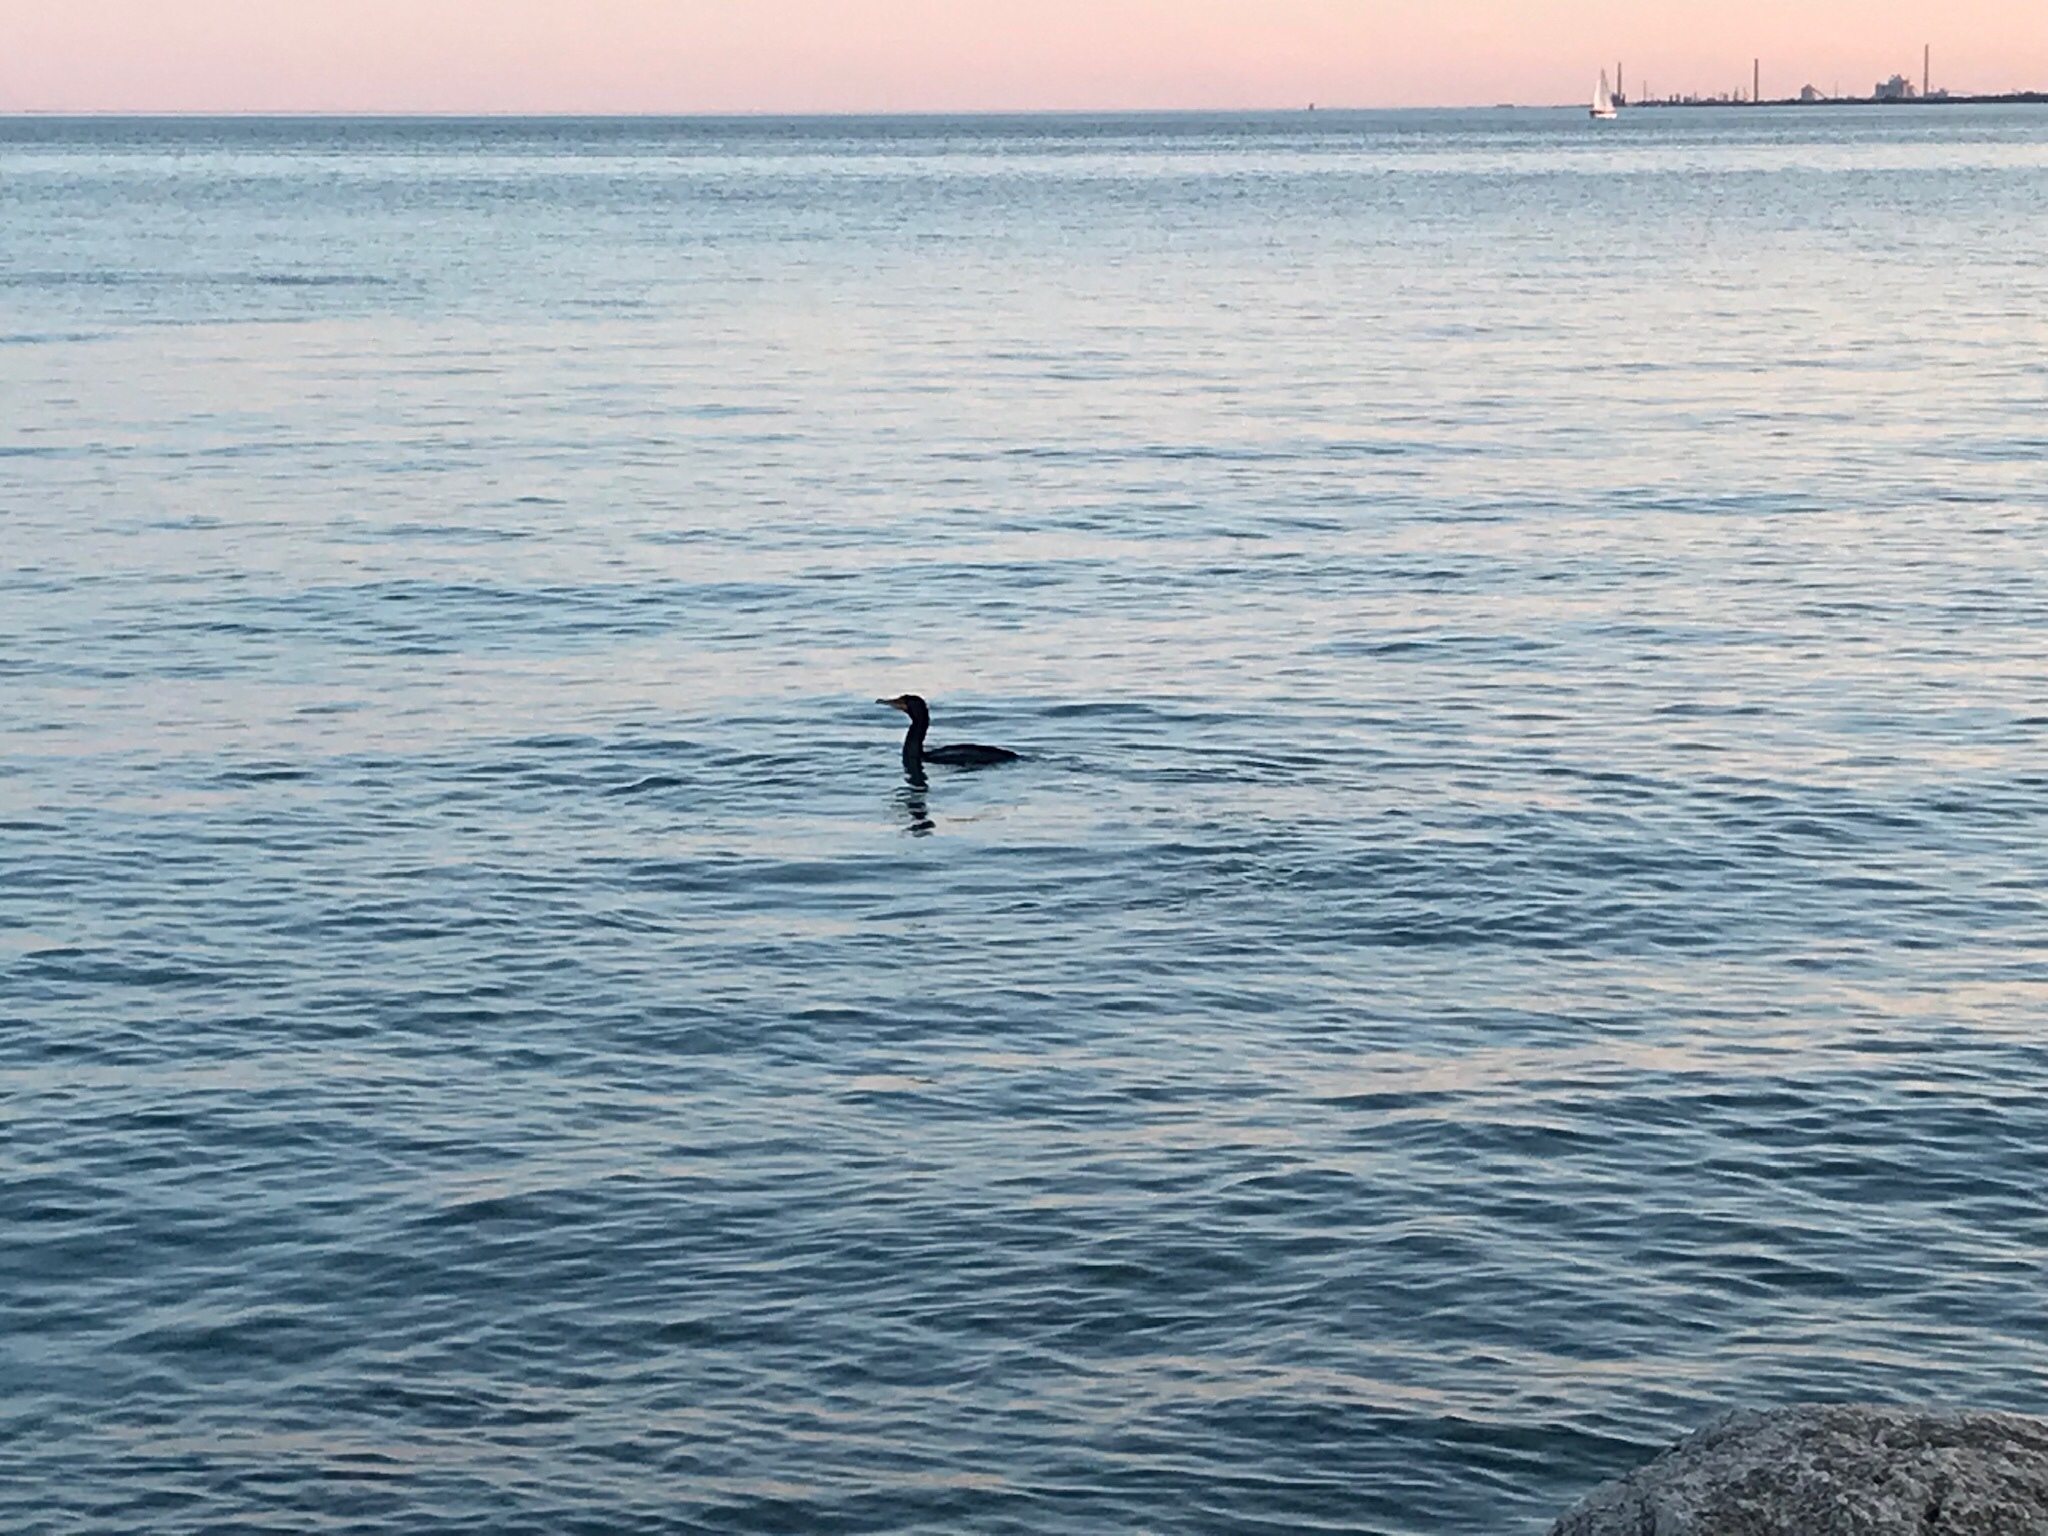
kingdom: Animalia
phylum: Chordata
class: Aves
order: Suliformes
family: Phalacrocoracidae
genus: Phalacrocorax
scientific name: Phalacrocorax auritus
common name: Double-crested cormorant
